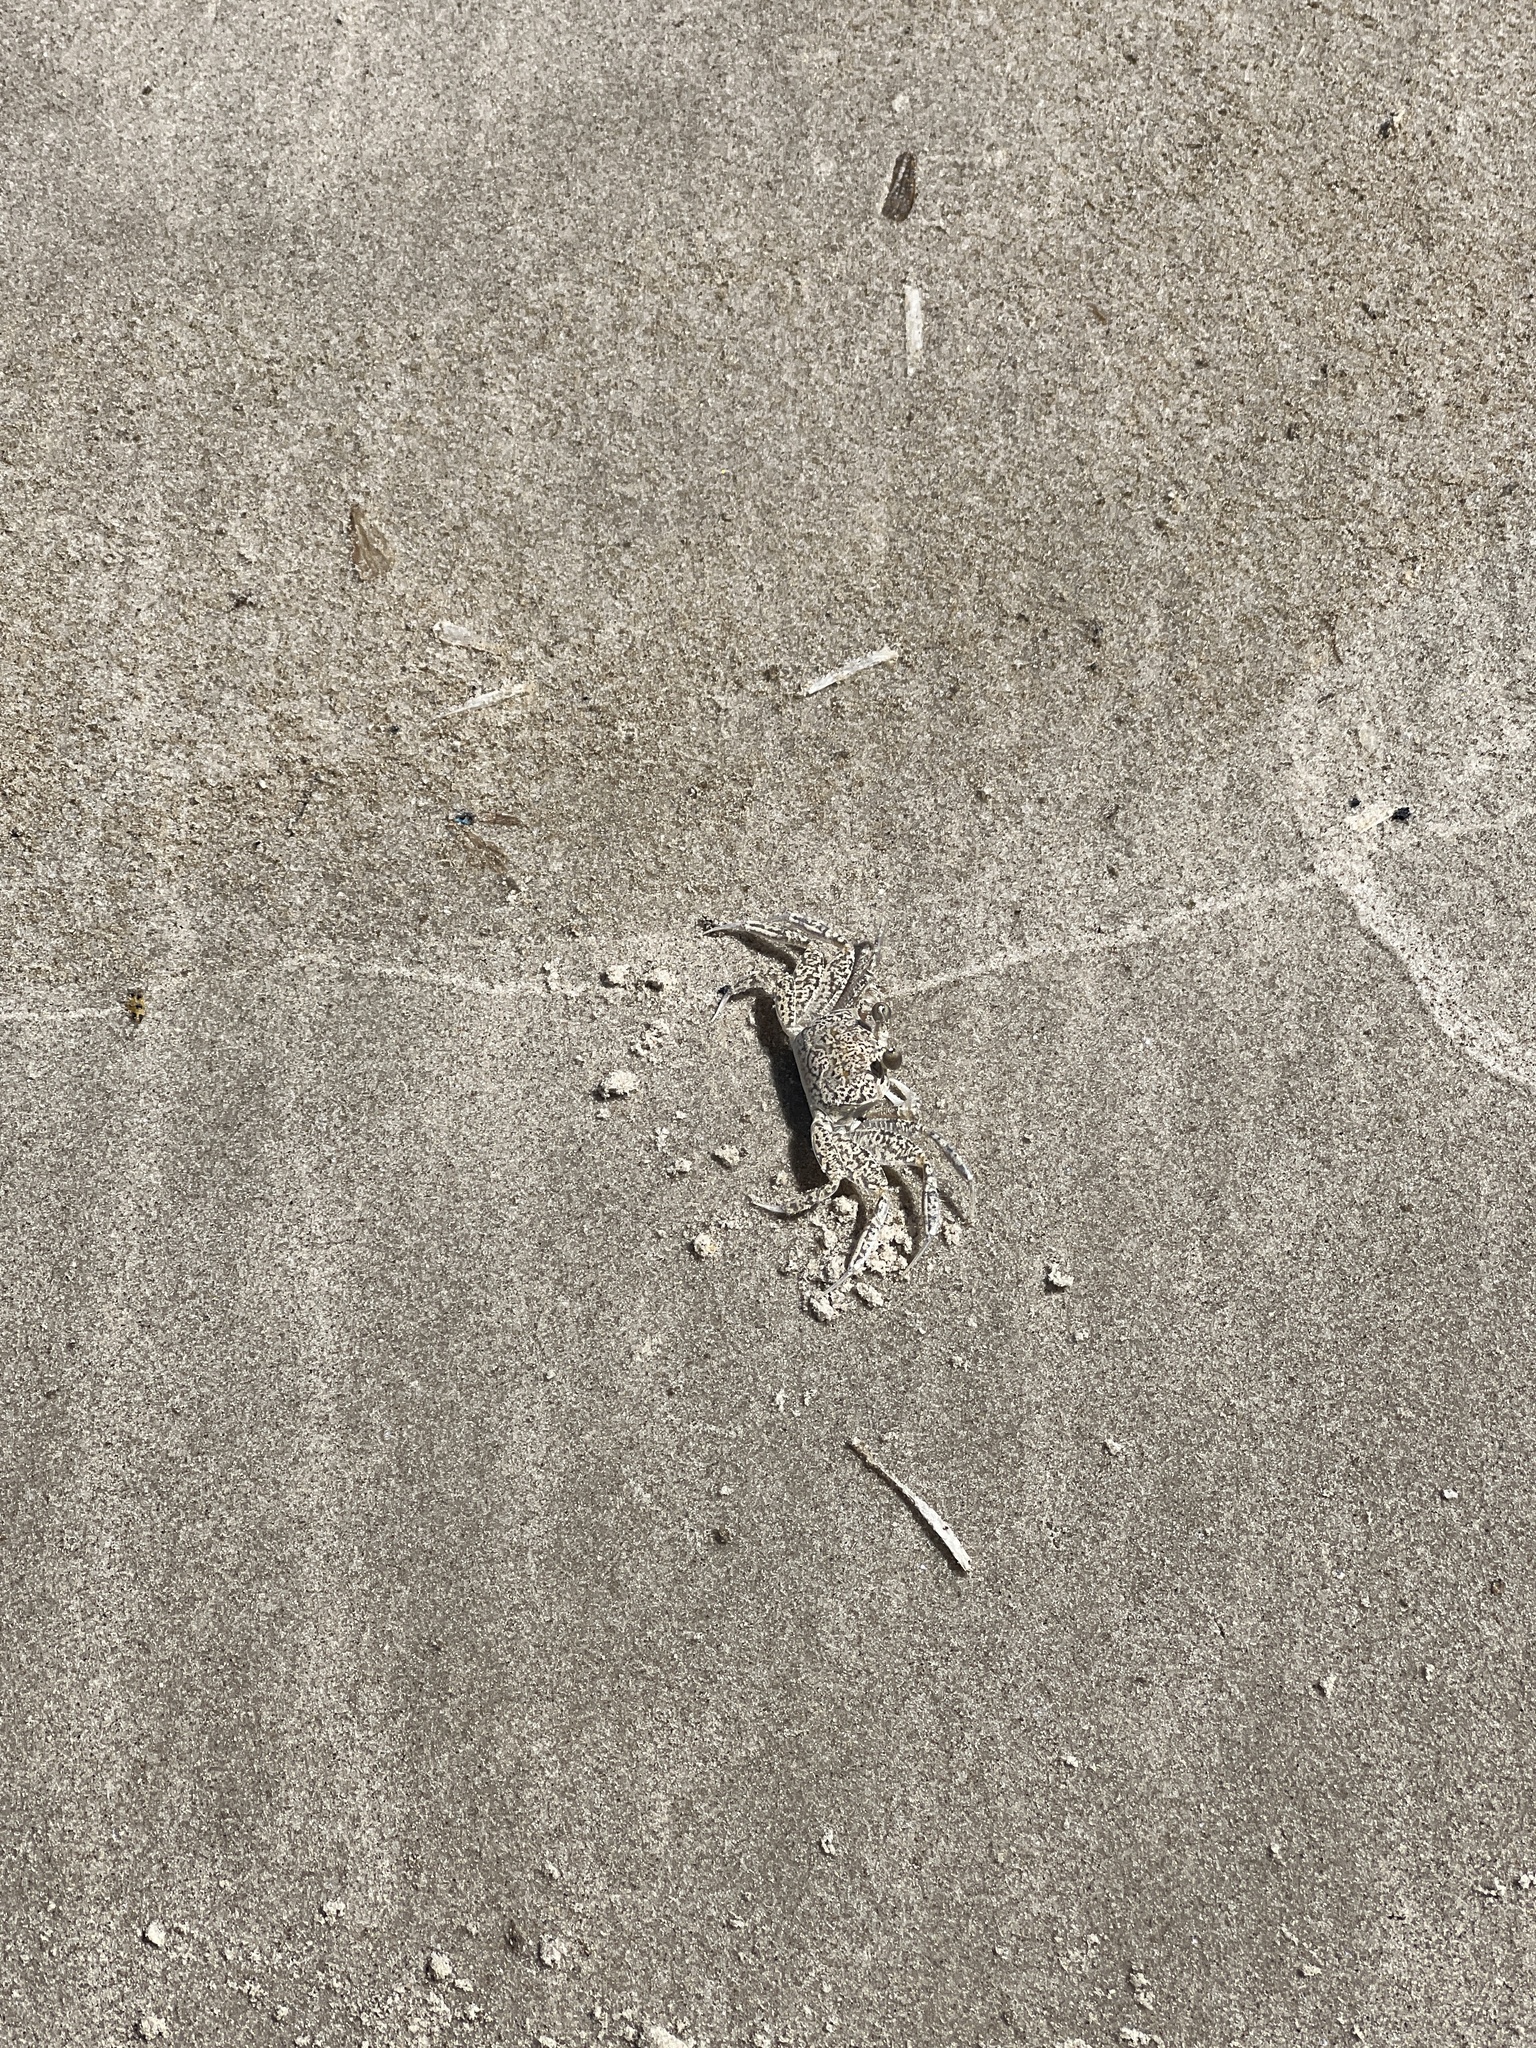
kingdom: Animalia
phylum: Arthropoda
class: Malacostraca
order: Decapoda
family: Ocypodidae
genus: Ocypode
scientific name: Ocypode quadrata
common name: Ghost crab
